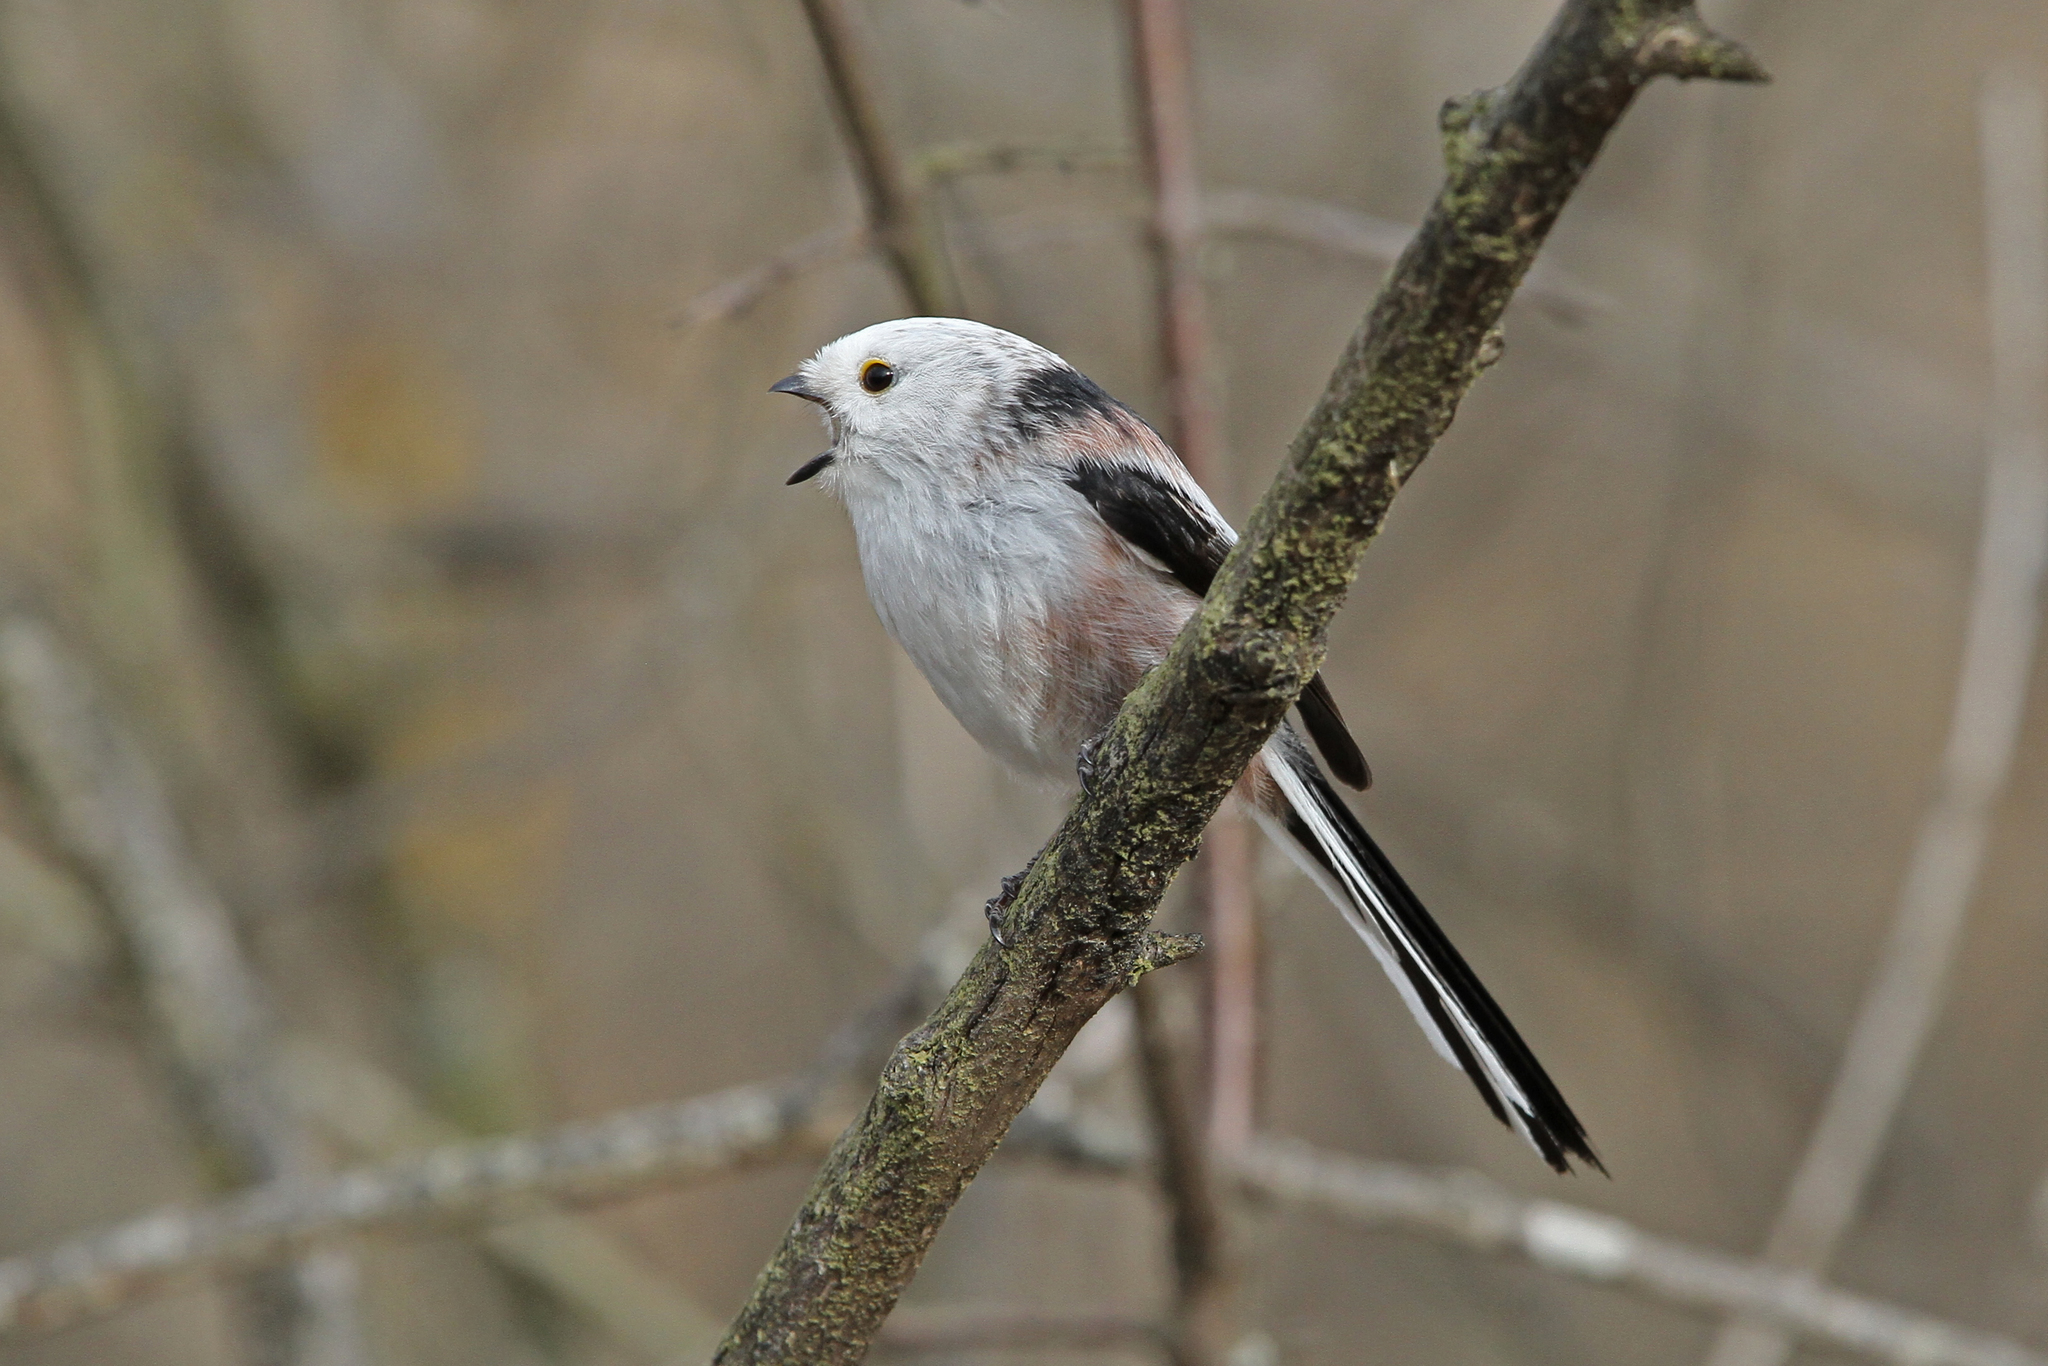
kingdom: Animalia
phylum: Chordata
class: Aves
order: Passeriformes
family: Aegithalidae
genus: Aegithalos
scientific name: Aegithalos caudatus
